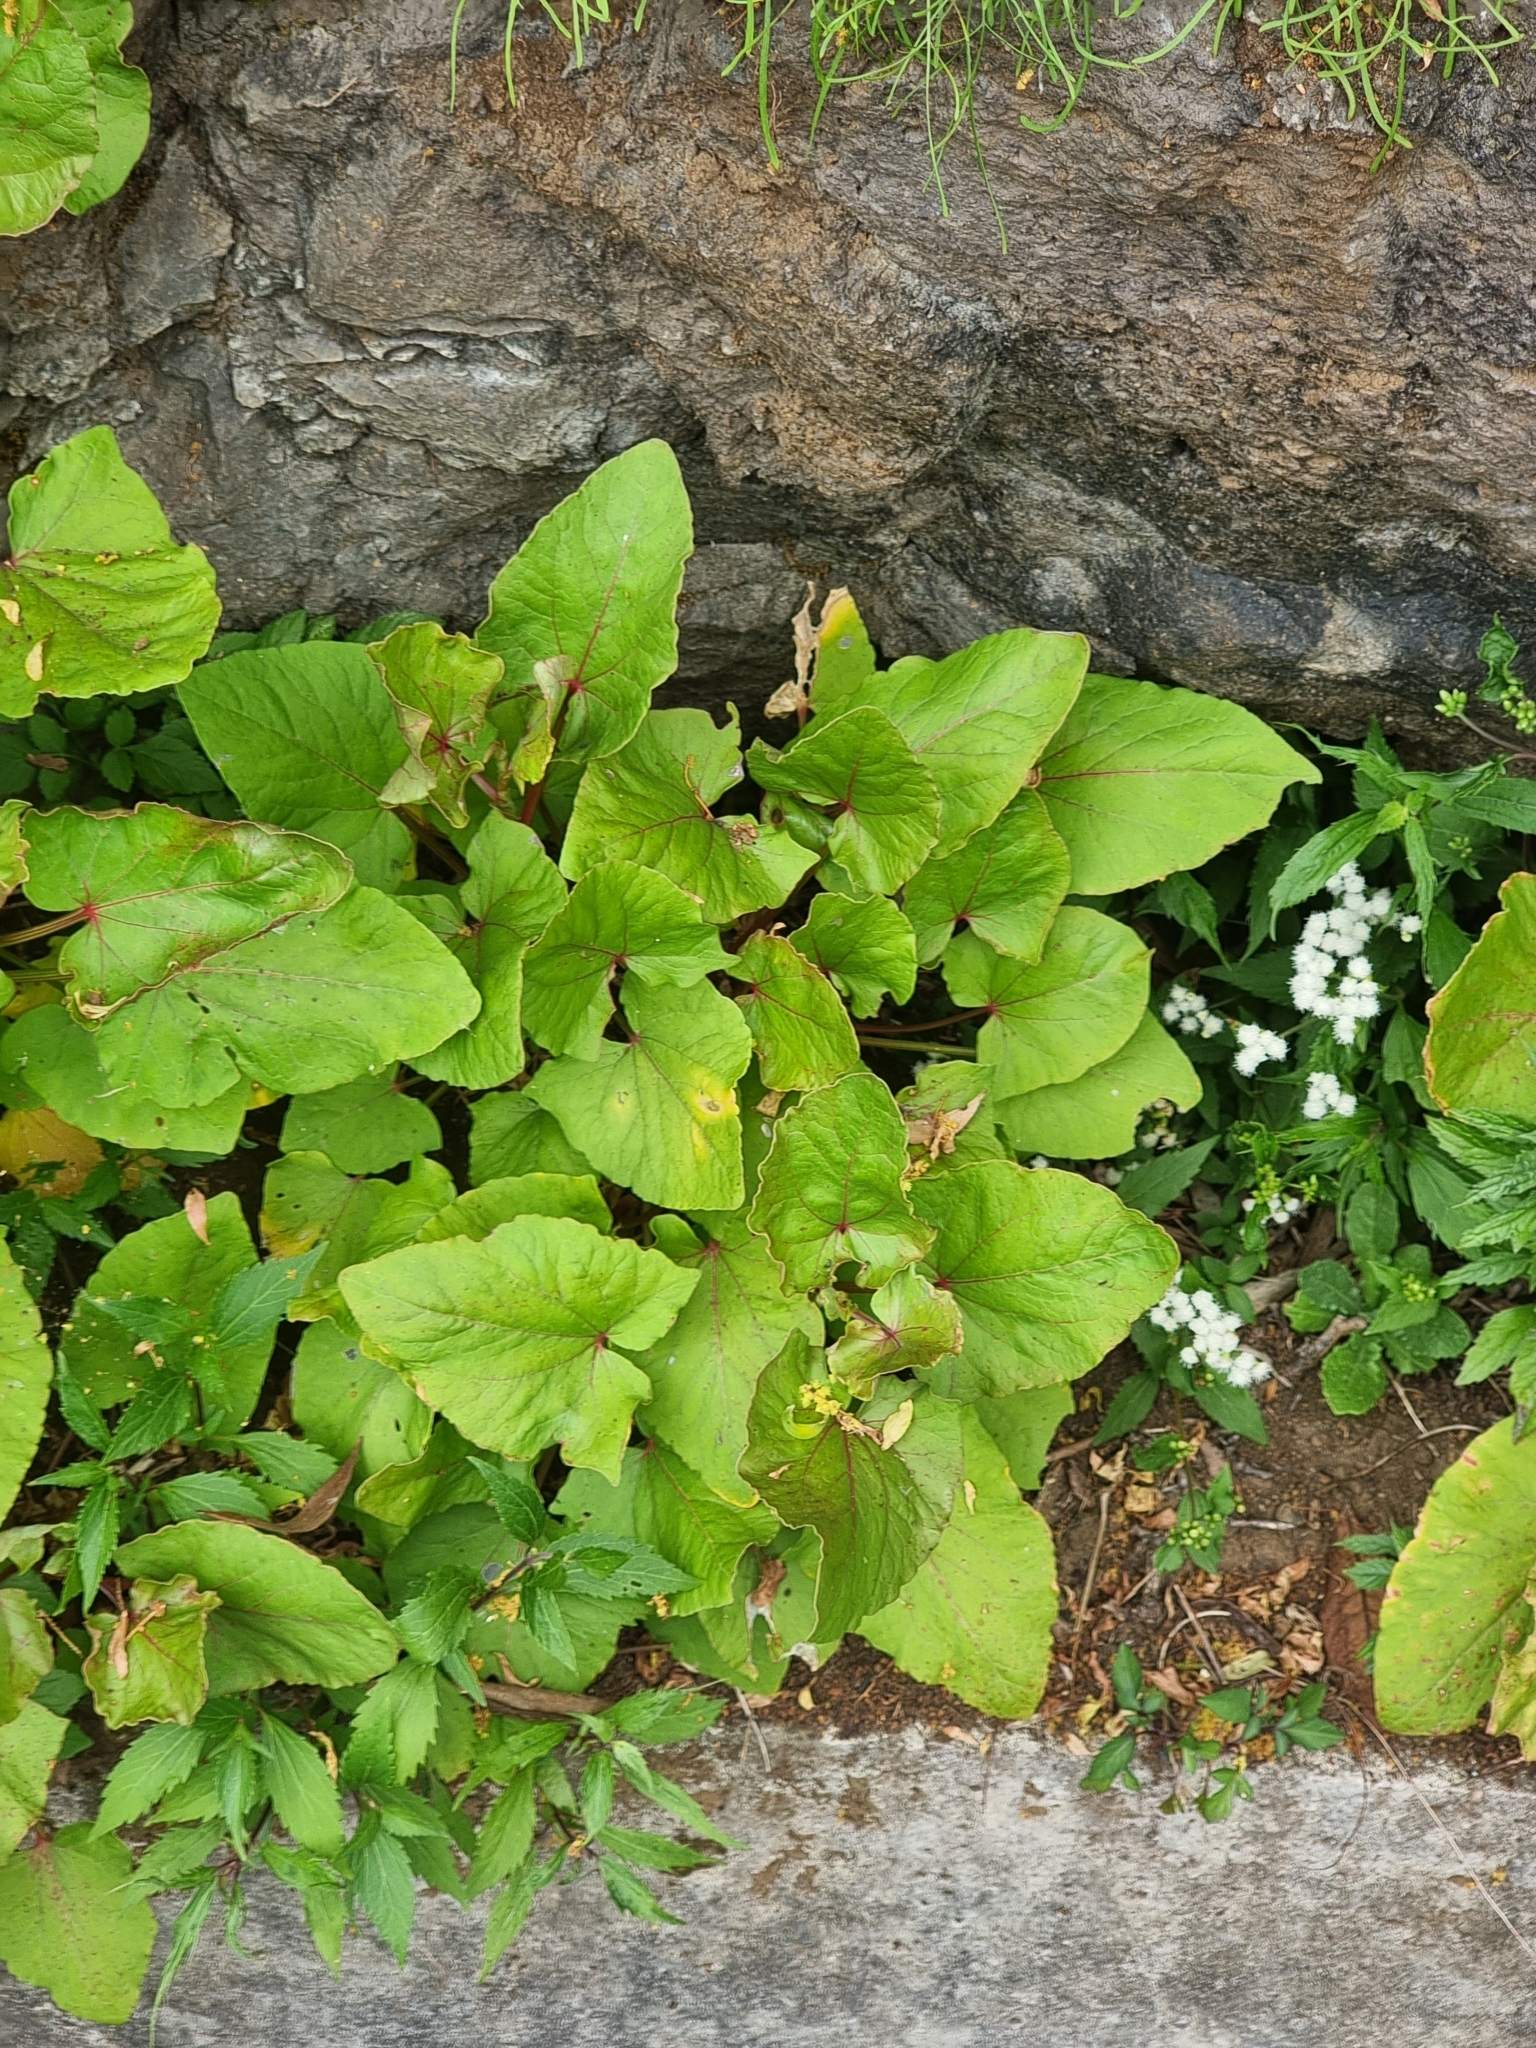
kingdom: Plantae
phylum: Tracheophyta
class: Magnoliopsida
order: Caryophyllales
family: Polygonaceae
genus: Rumex
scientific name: Rumex maderensis
